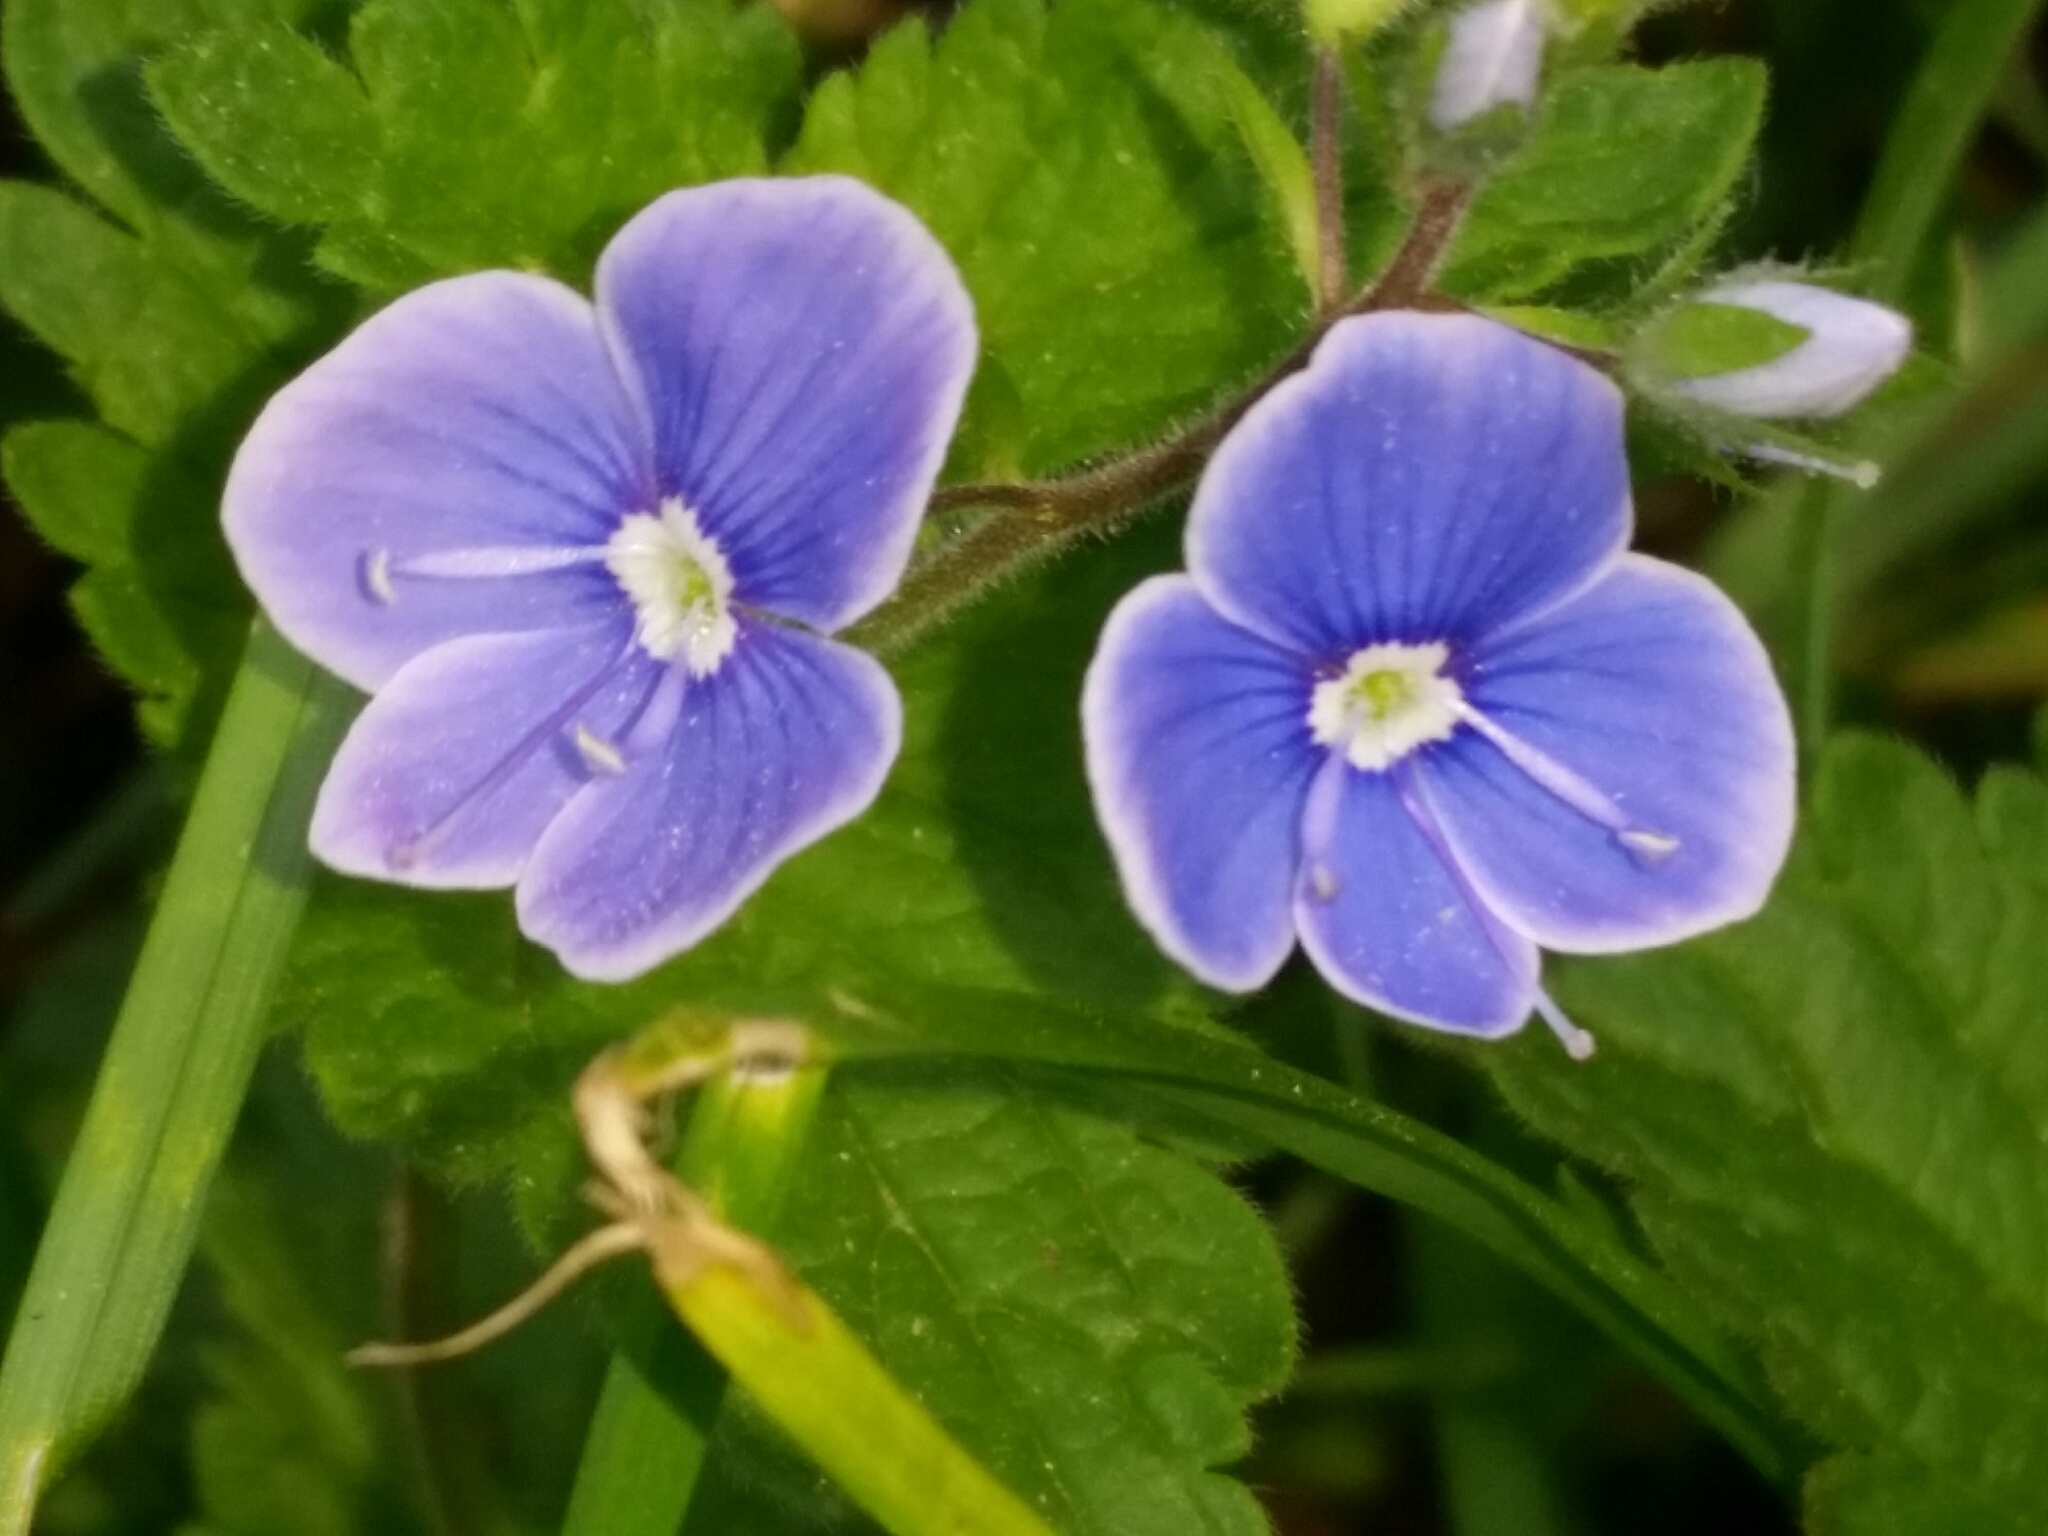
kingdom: Plantae
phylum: Tracheophyta
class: Magnoliopsida
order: Lamiales
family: Plantaginaceae
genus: Veronica
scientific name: Veronica chamaedrys
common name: Germander speedwell
